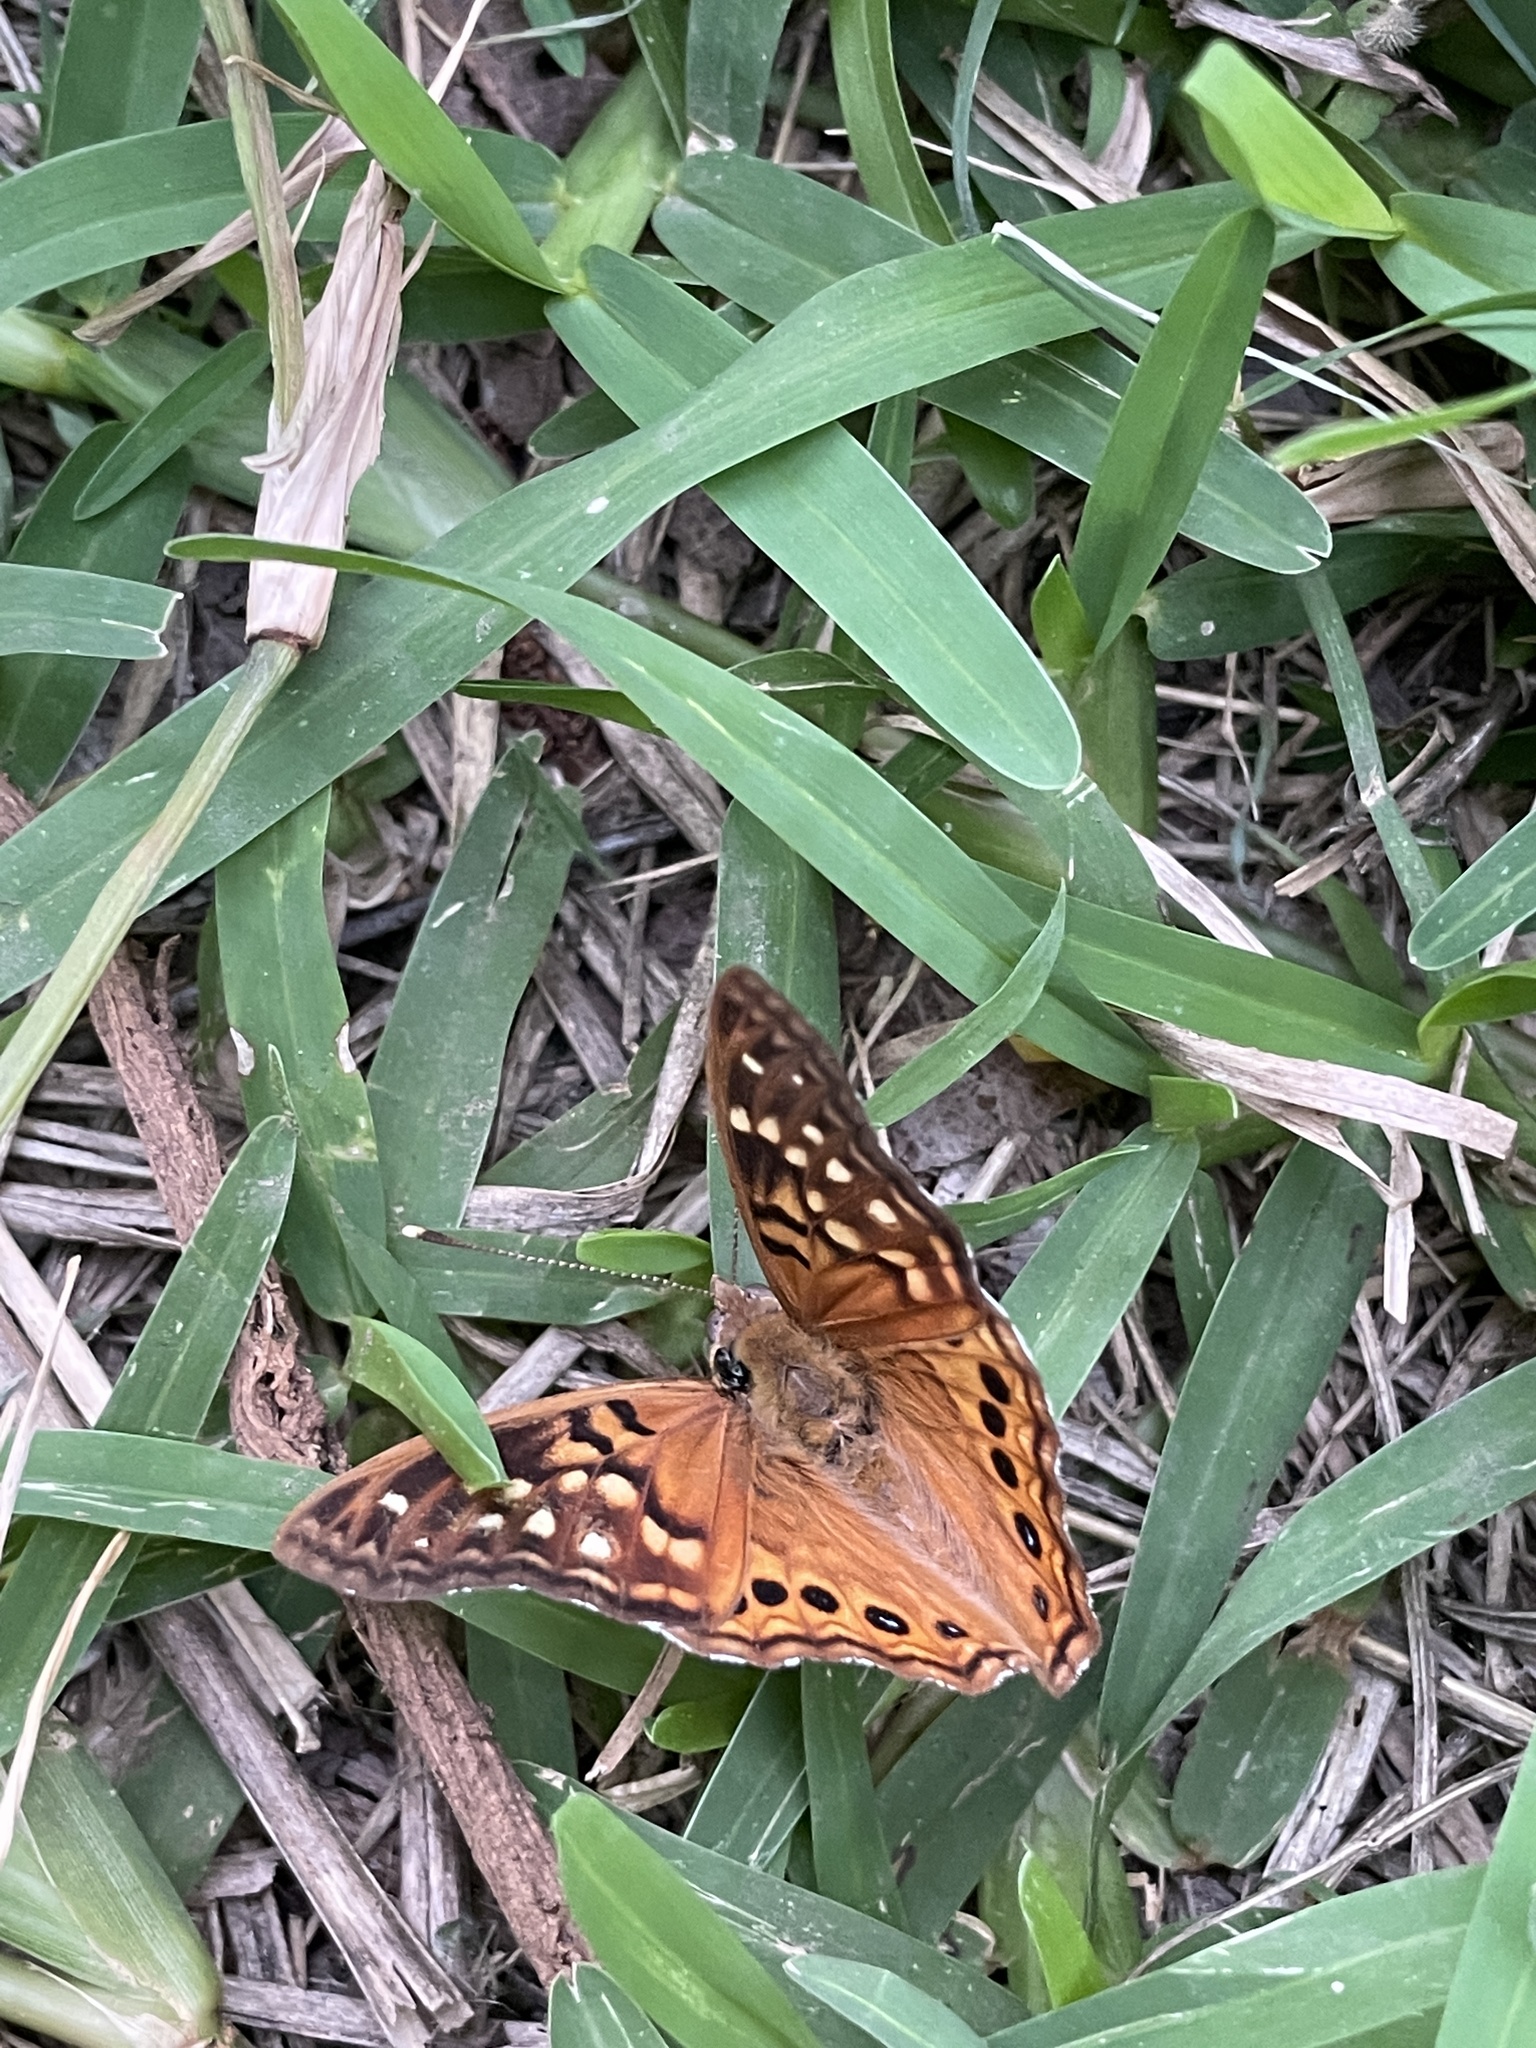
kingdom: Animalia
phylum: Arthropoda
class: Insecta
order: Lepidoptera
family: Nymphalidae
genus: Asterocampa
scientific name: Asterocampa clyton
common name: Tawny emperor
